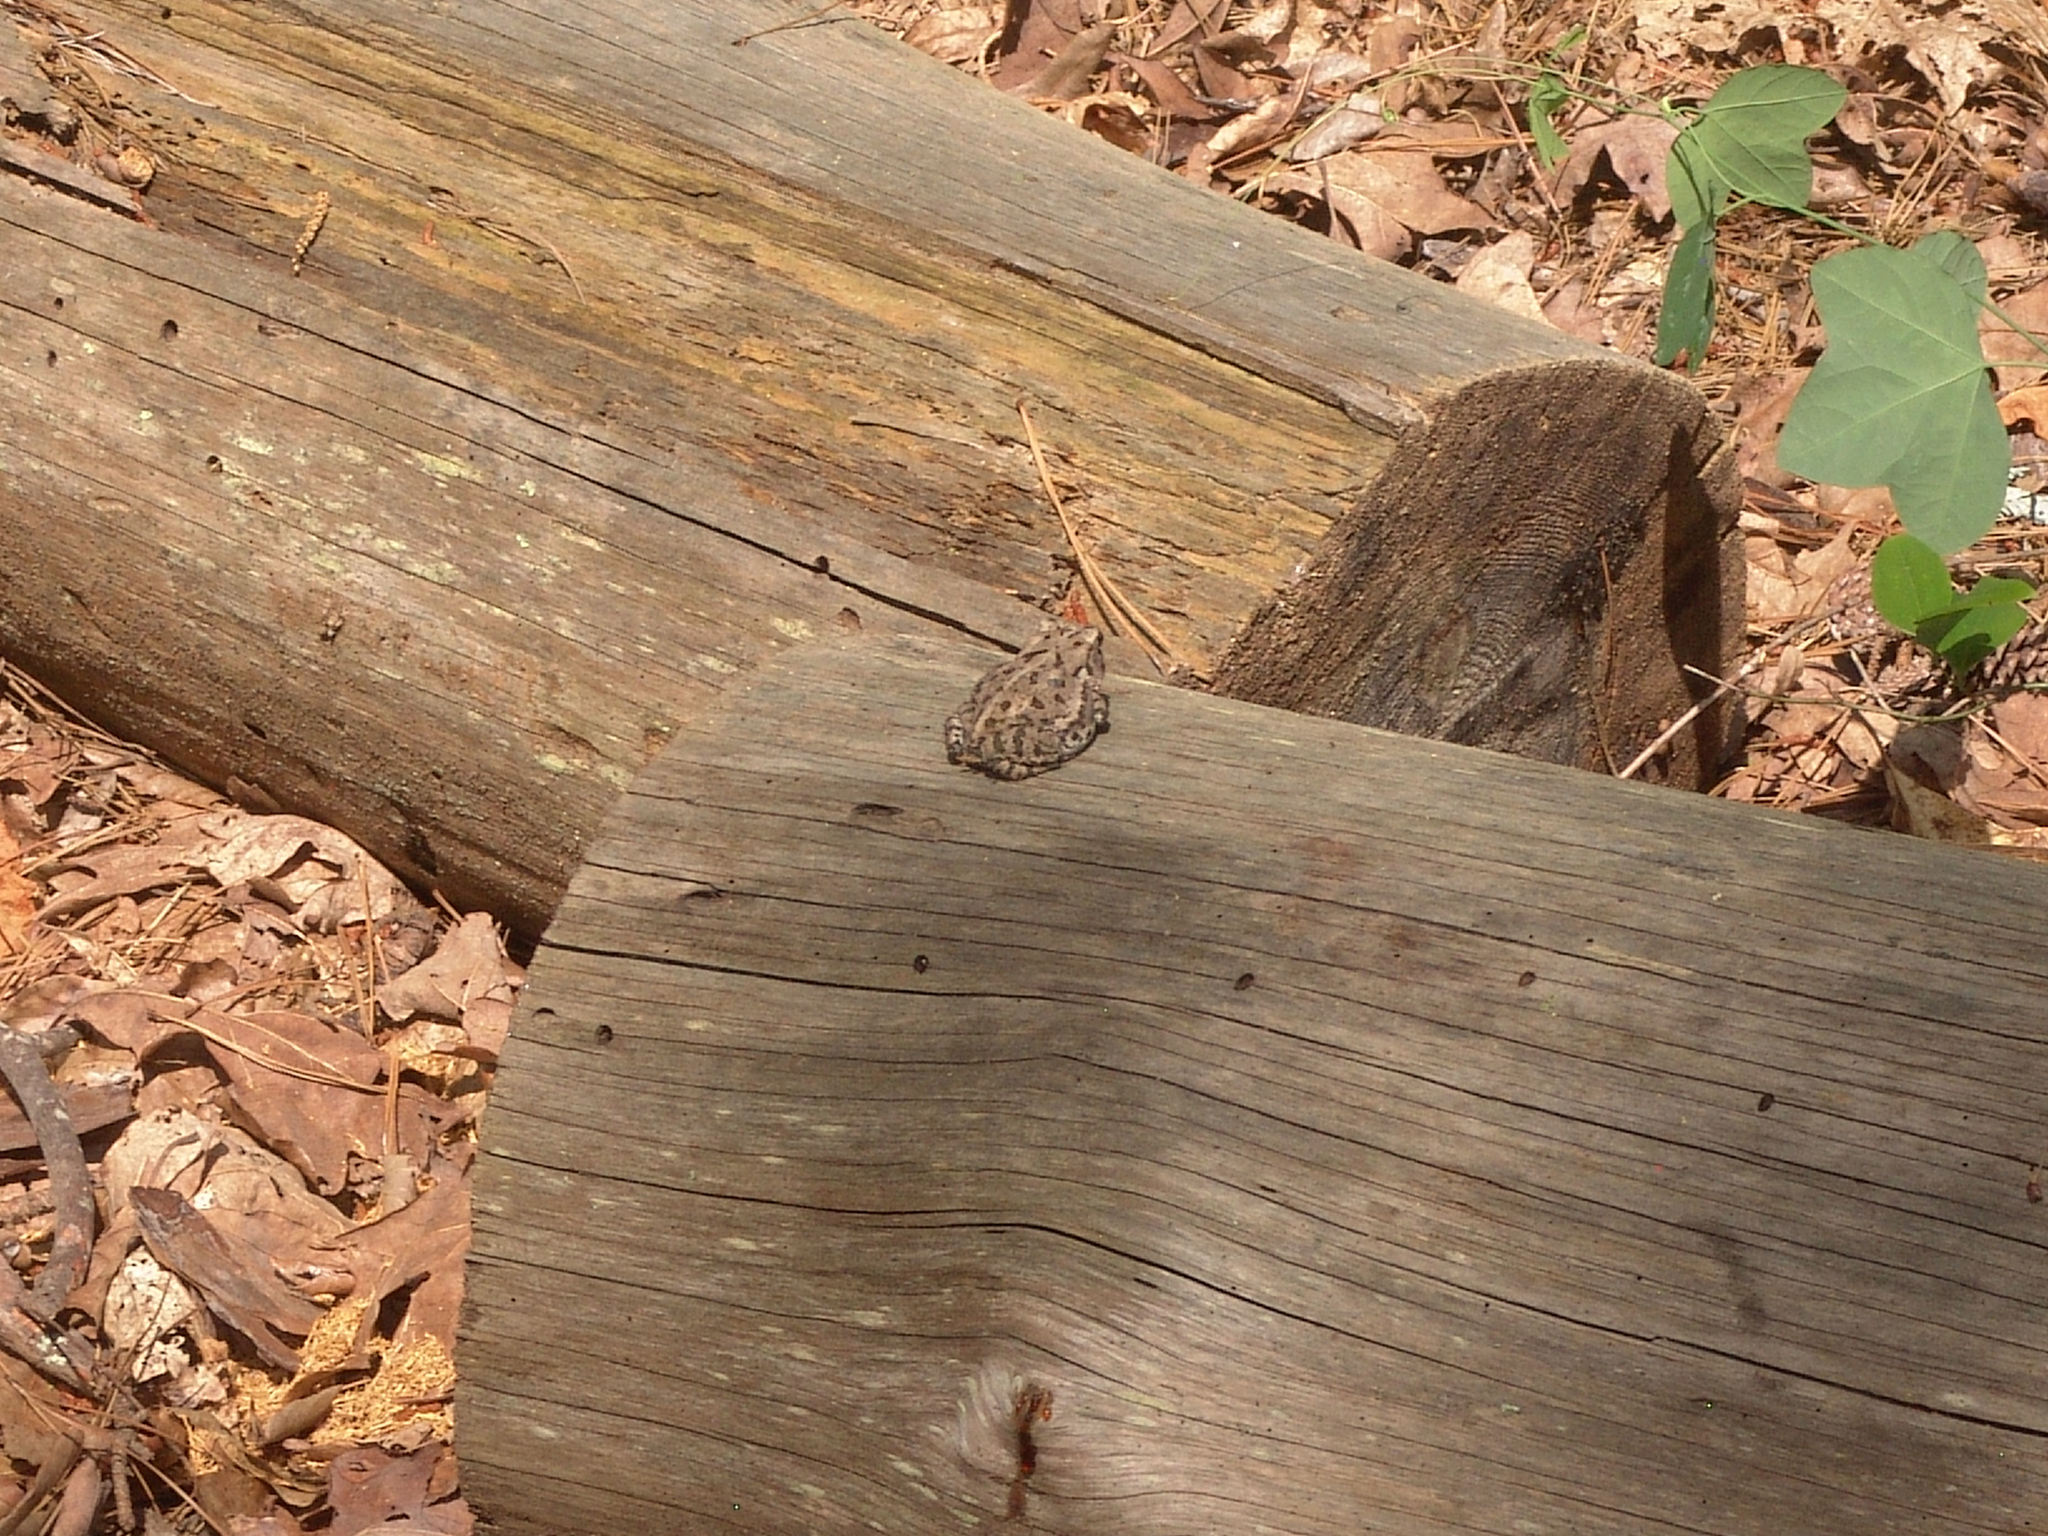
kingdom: Animalia
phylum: Chordata
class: Amphibia
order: Anura
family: Bufonidae
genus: Anaxyrus
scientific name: Anaxyrus fowleri
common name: Fowler's toad
